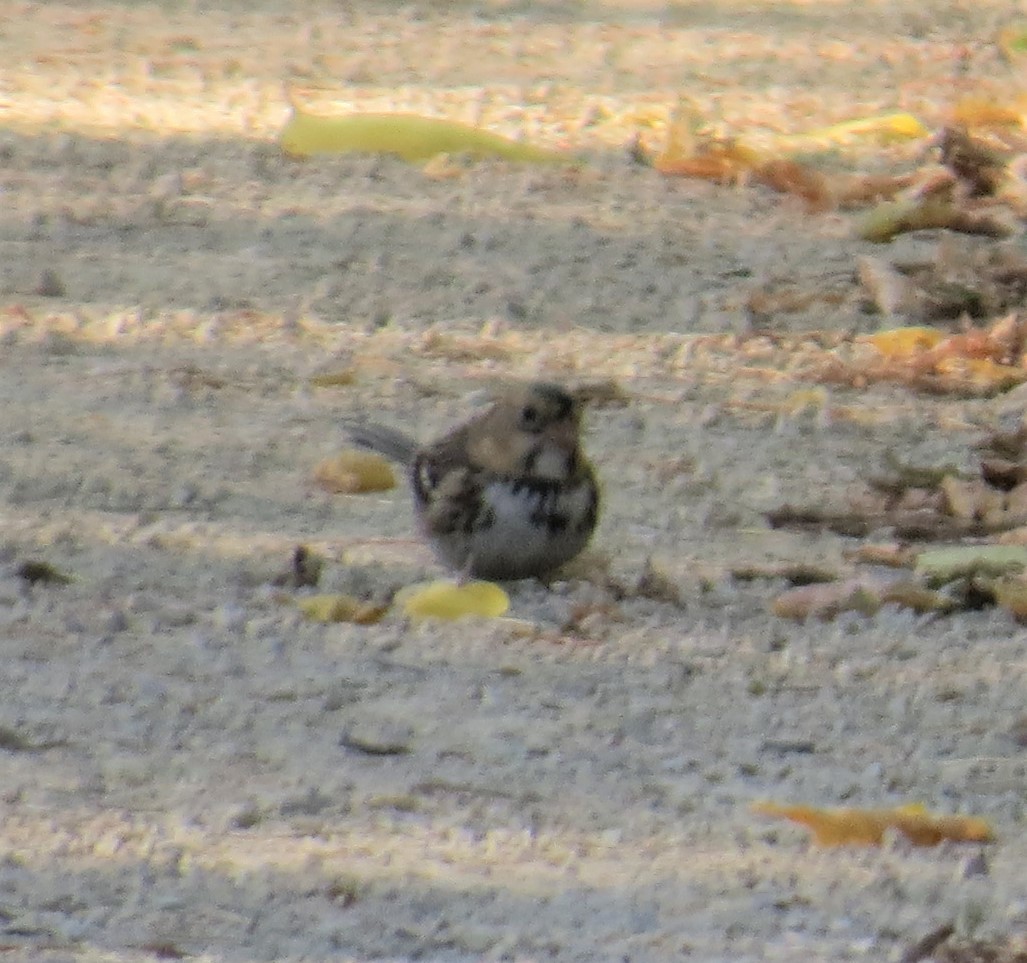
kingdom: Animalia
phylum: Chordata
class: Aves
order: Passeriformes
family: Passerellidae
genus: Zonotrichia
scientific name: Zonotrichia querula
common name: Harris's sparrow
